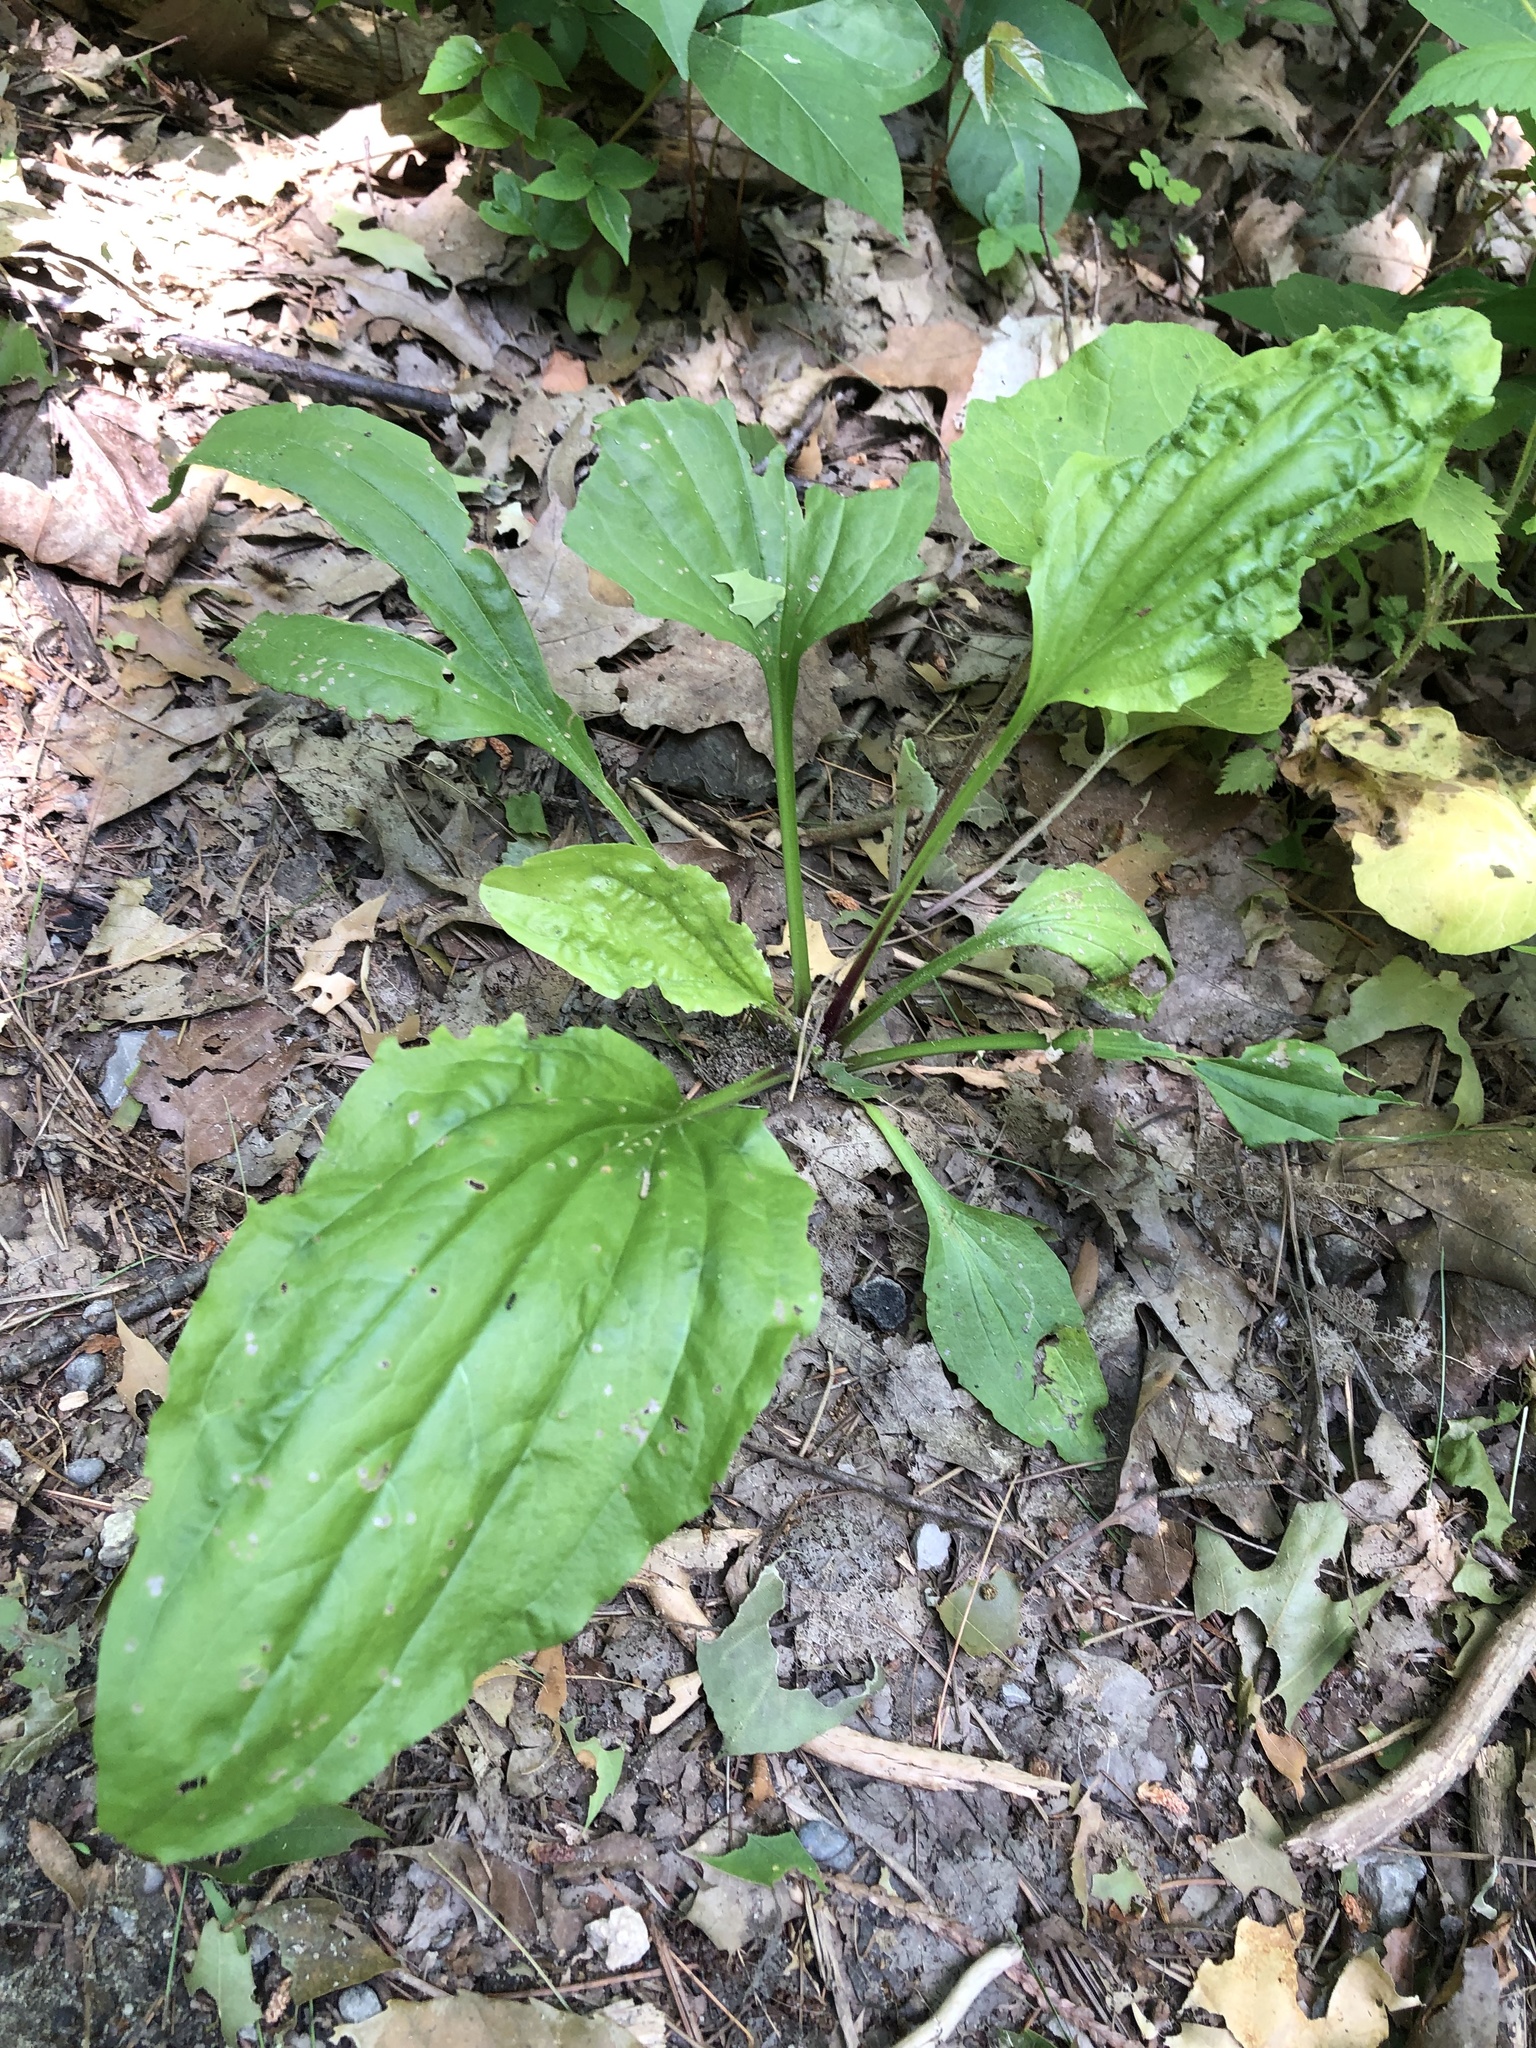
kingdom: Plantae
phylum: Tracheophyta
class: Magnoliopsida
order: Lamiales
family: Plantaginaceae
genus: Plantago
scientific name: Plantago rugelii
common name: American plantain
